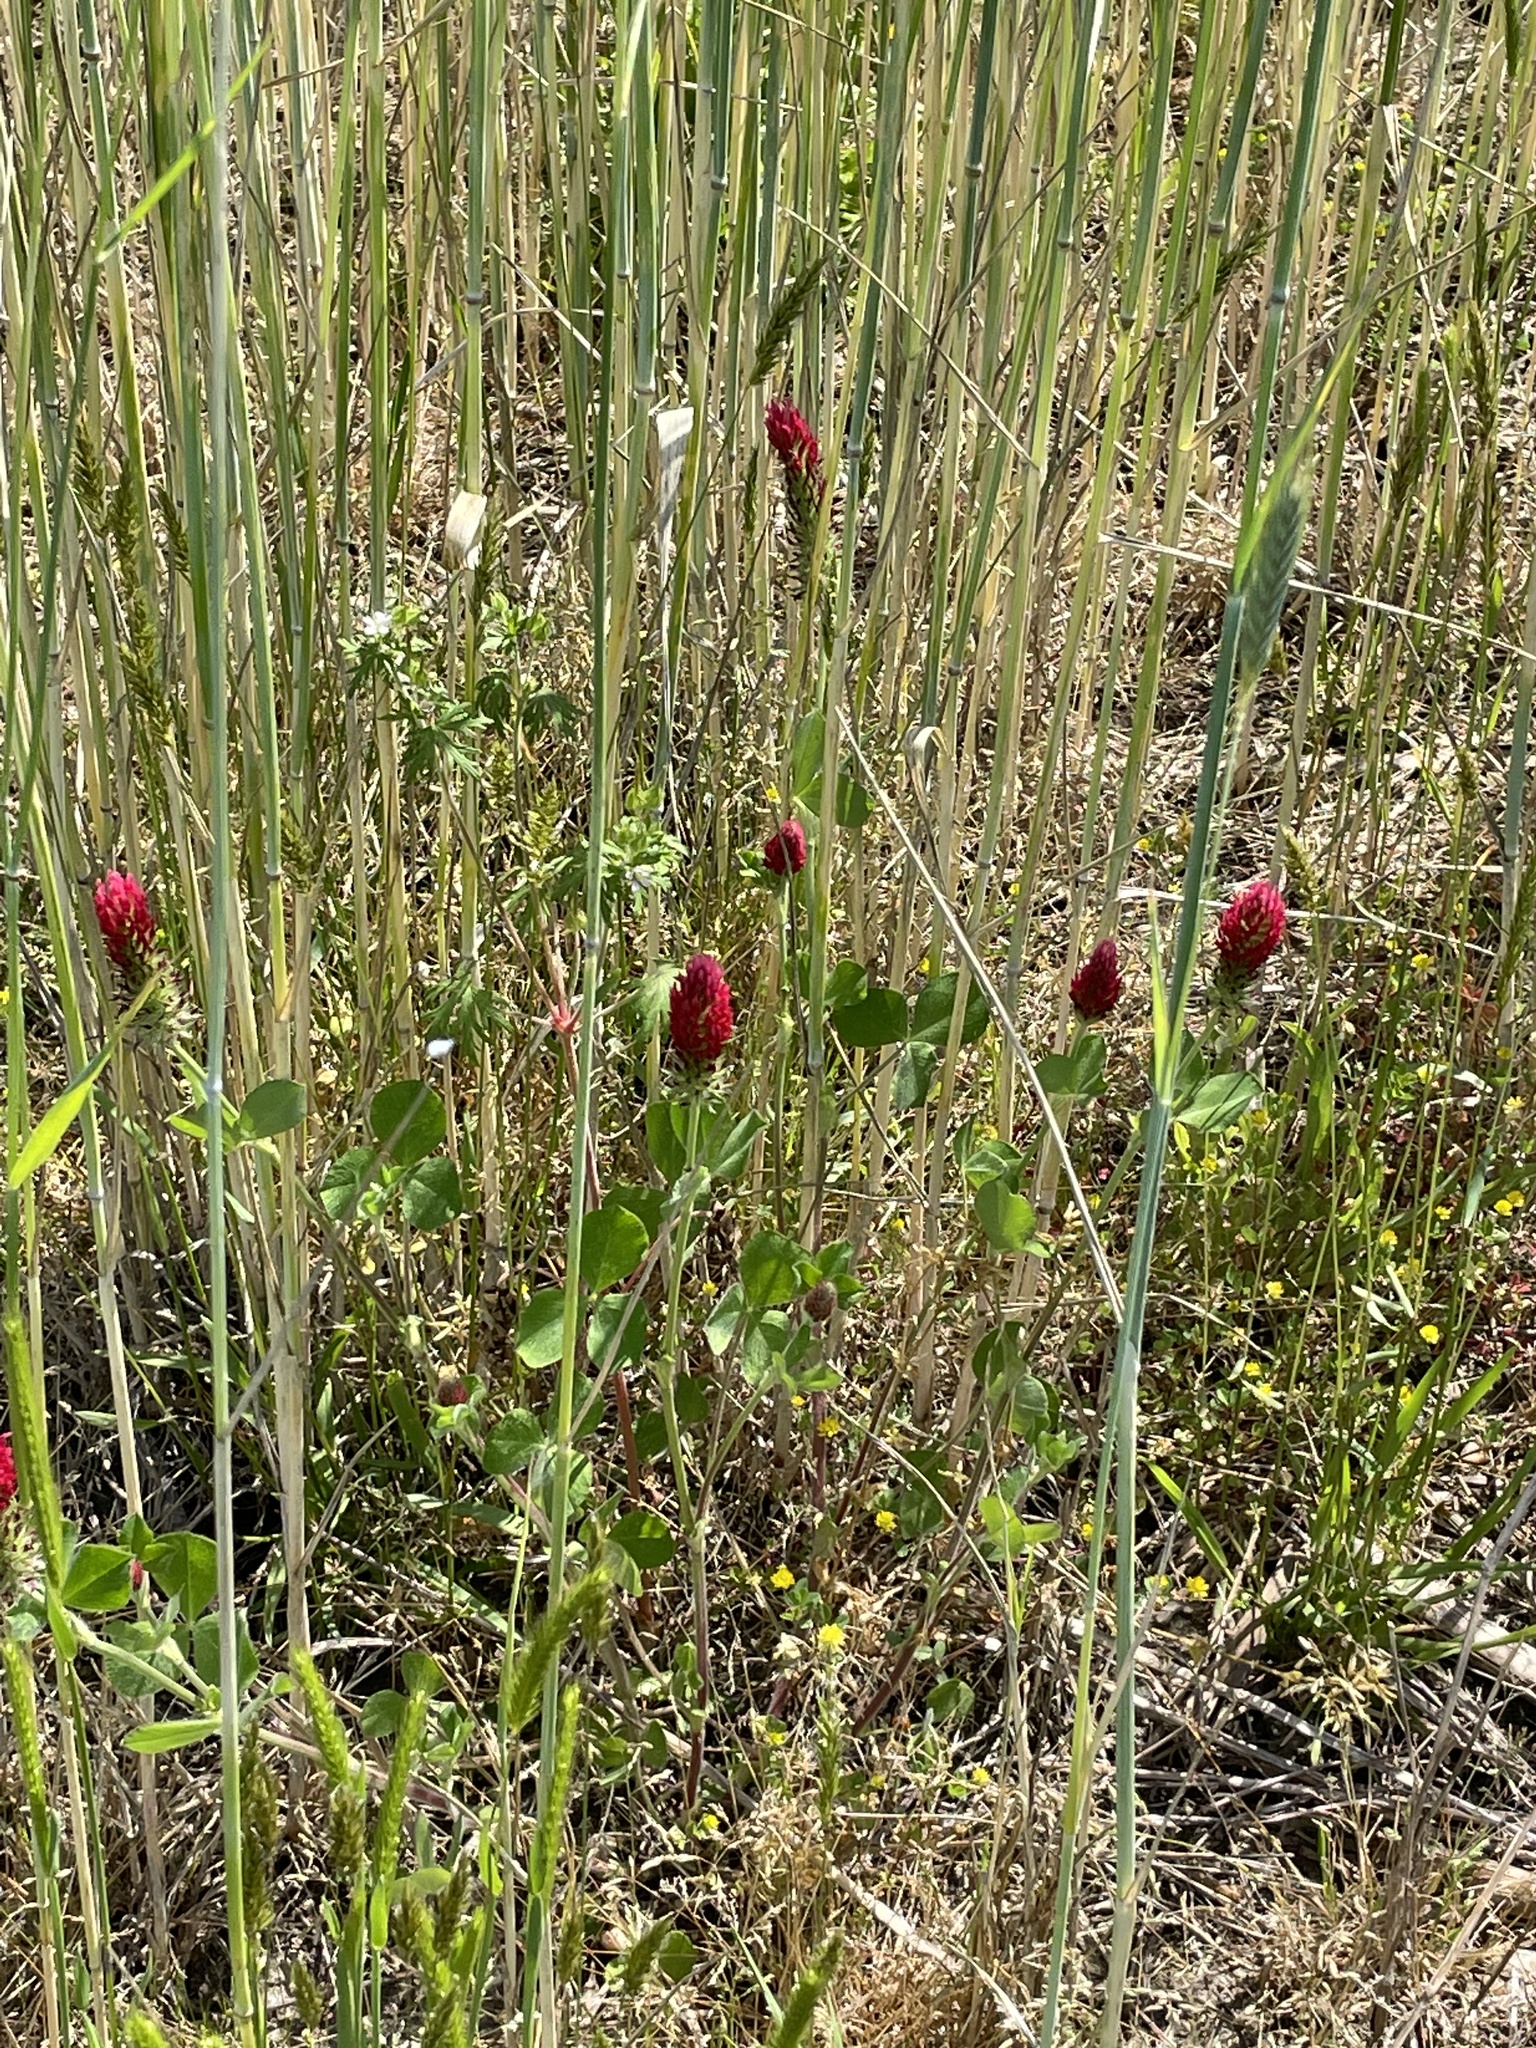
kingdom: Plantae
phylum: Tracheophyta
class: Magnoliopsida
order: Fabales
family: Fabaceae
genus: Trifolium
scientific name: Trifolium incarnatum
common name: Crimson clover
